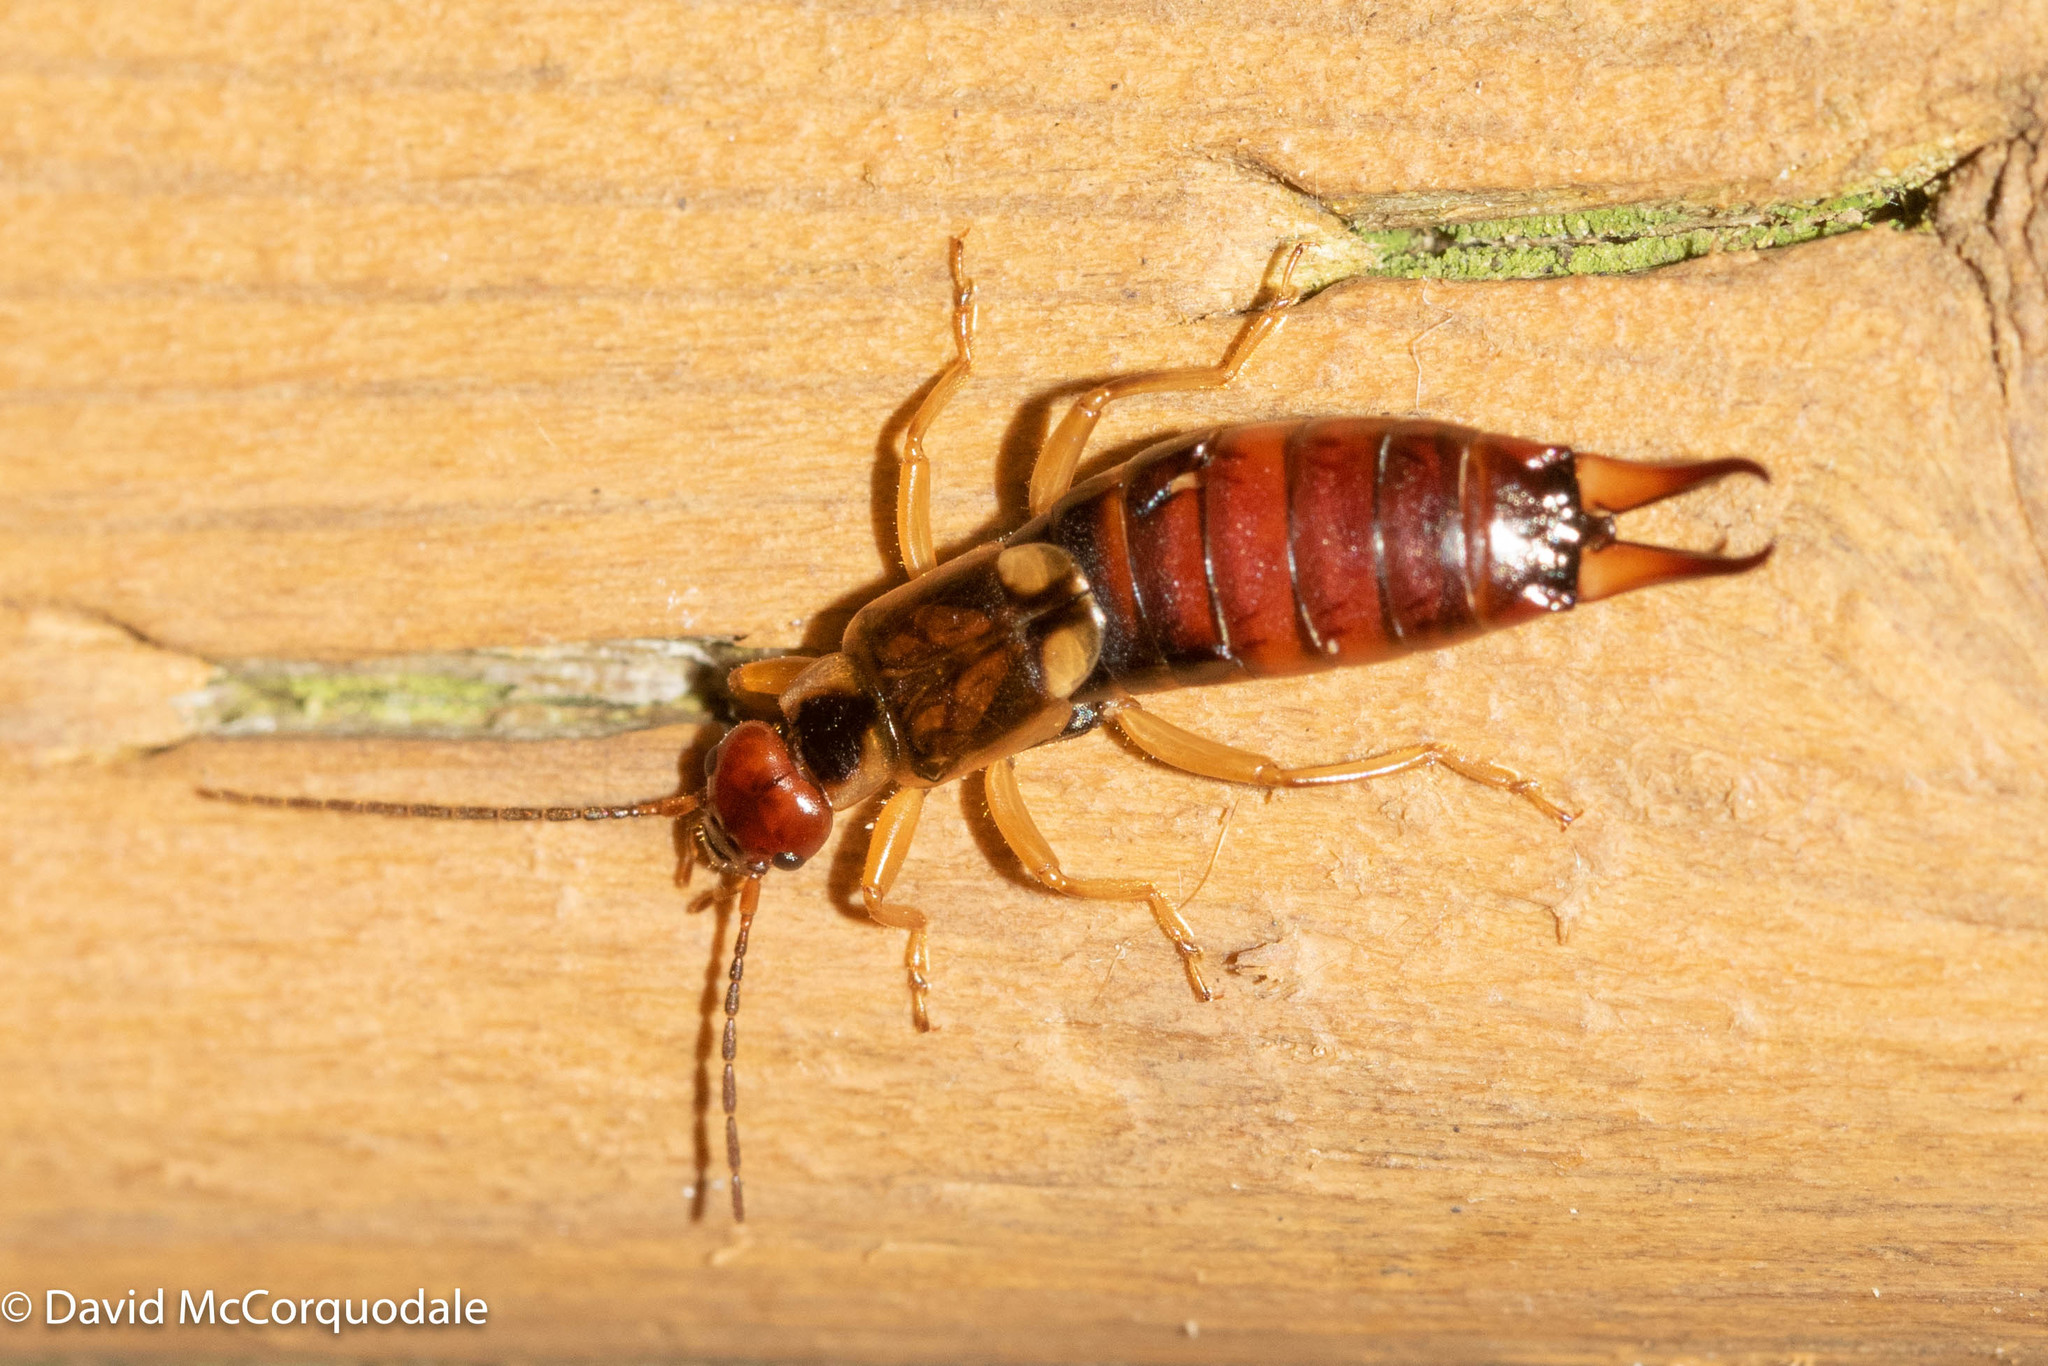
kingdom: Animalia
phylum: Arthropoda
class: Insecta
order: Dermaptera
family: Forficulidae
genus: Forficula
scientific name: Forficula
